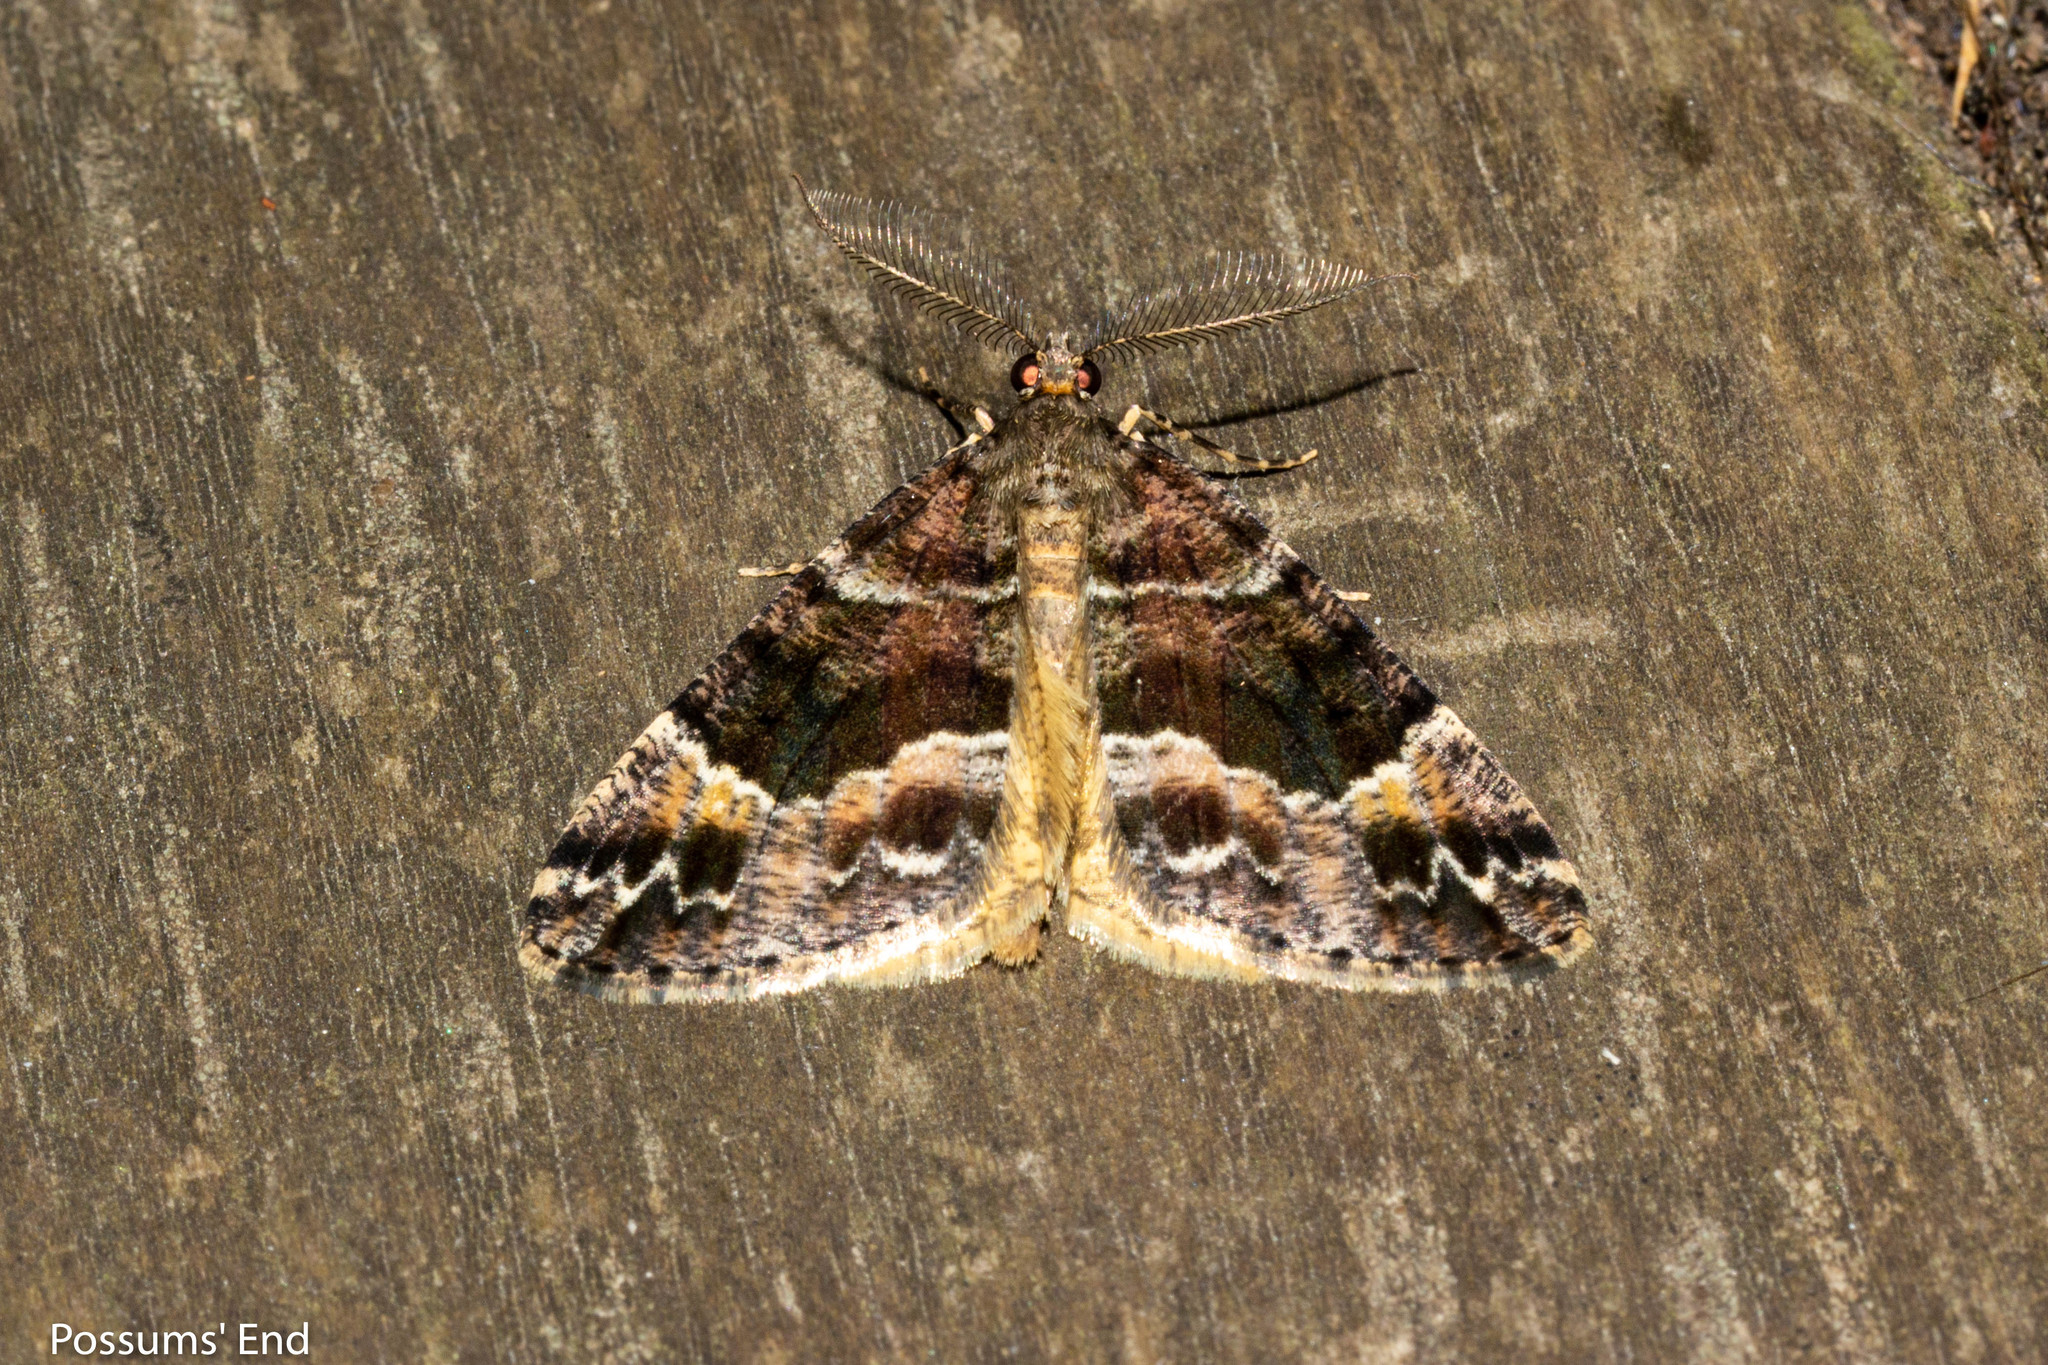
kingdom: Animalia
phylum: Arthropoda
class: Insecta
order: Lepidoptera
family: Geometridae
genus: Pseudocoremia
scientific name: Pseudocoremia productata
